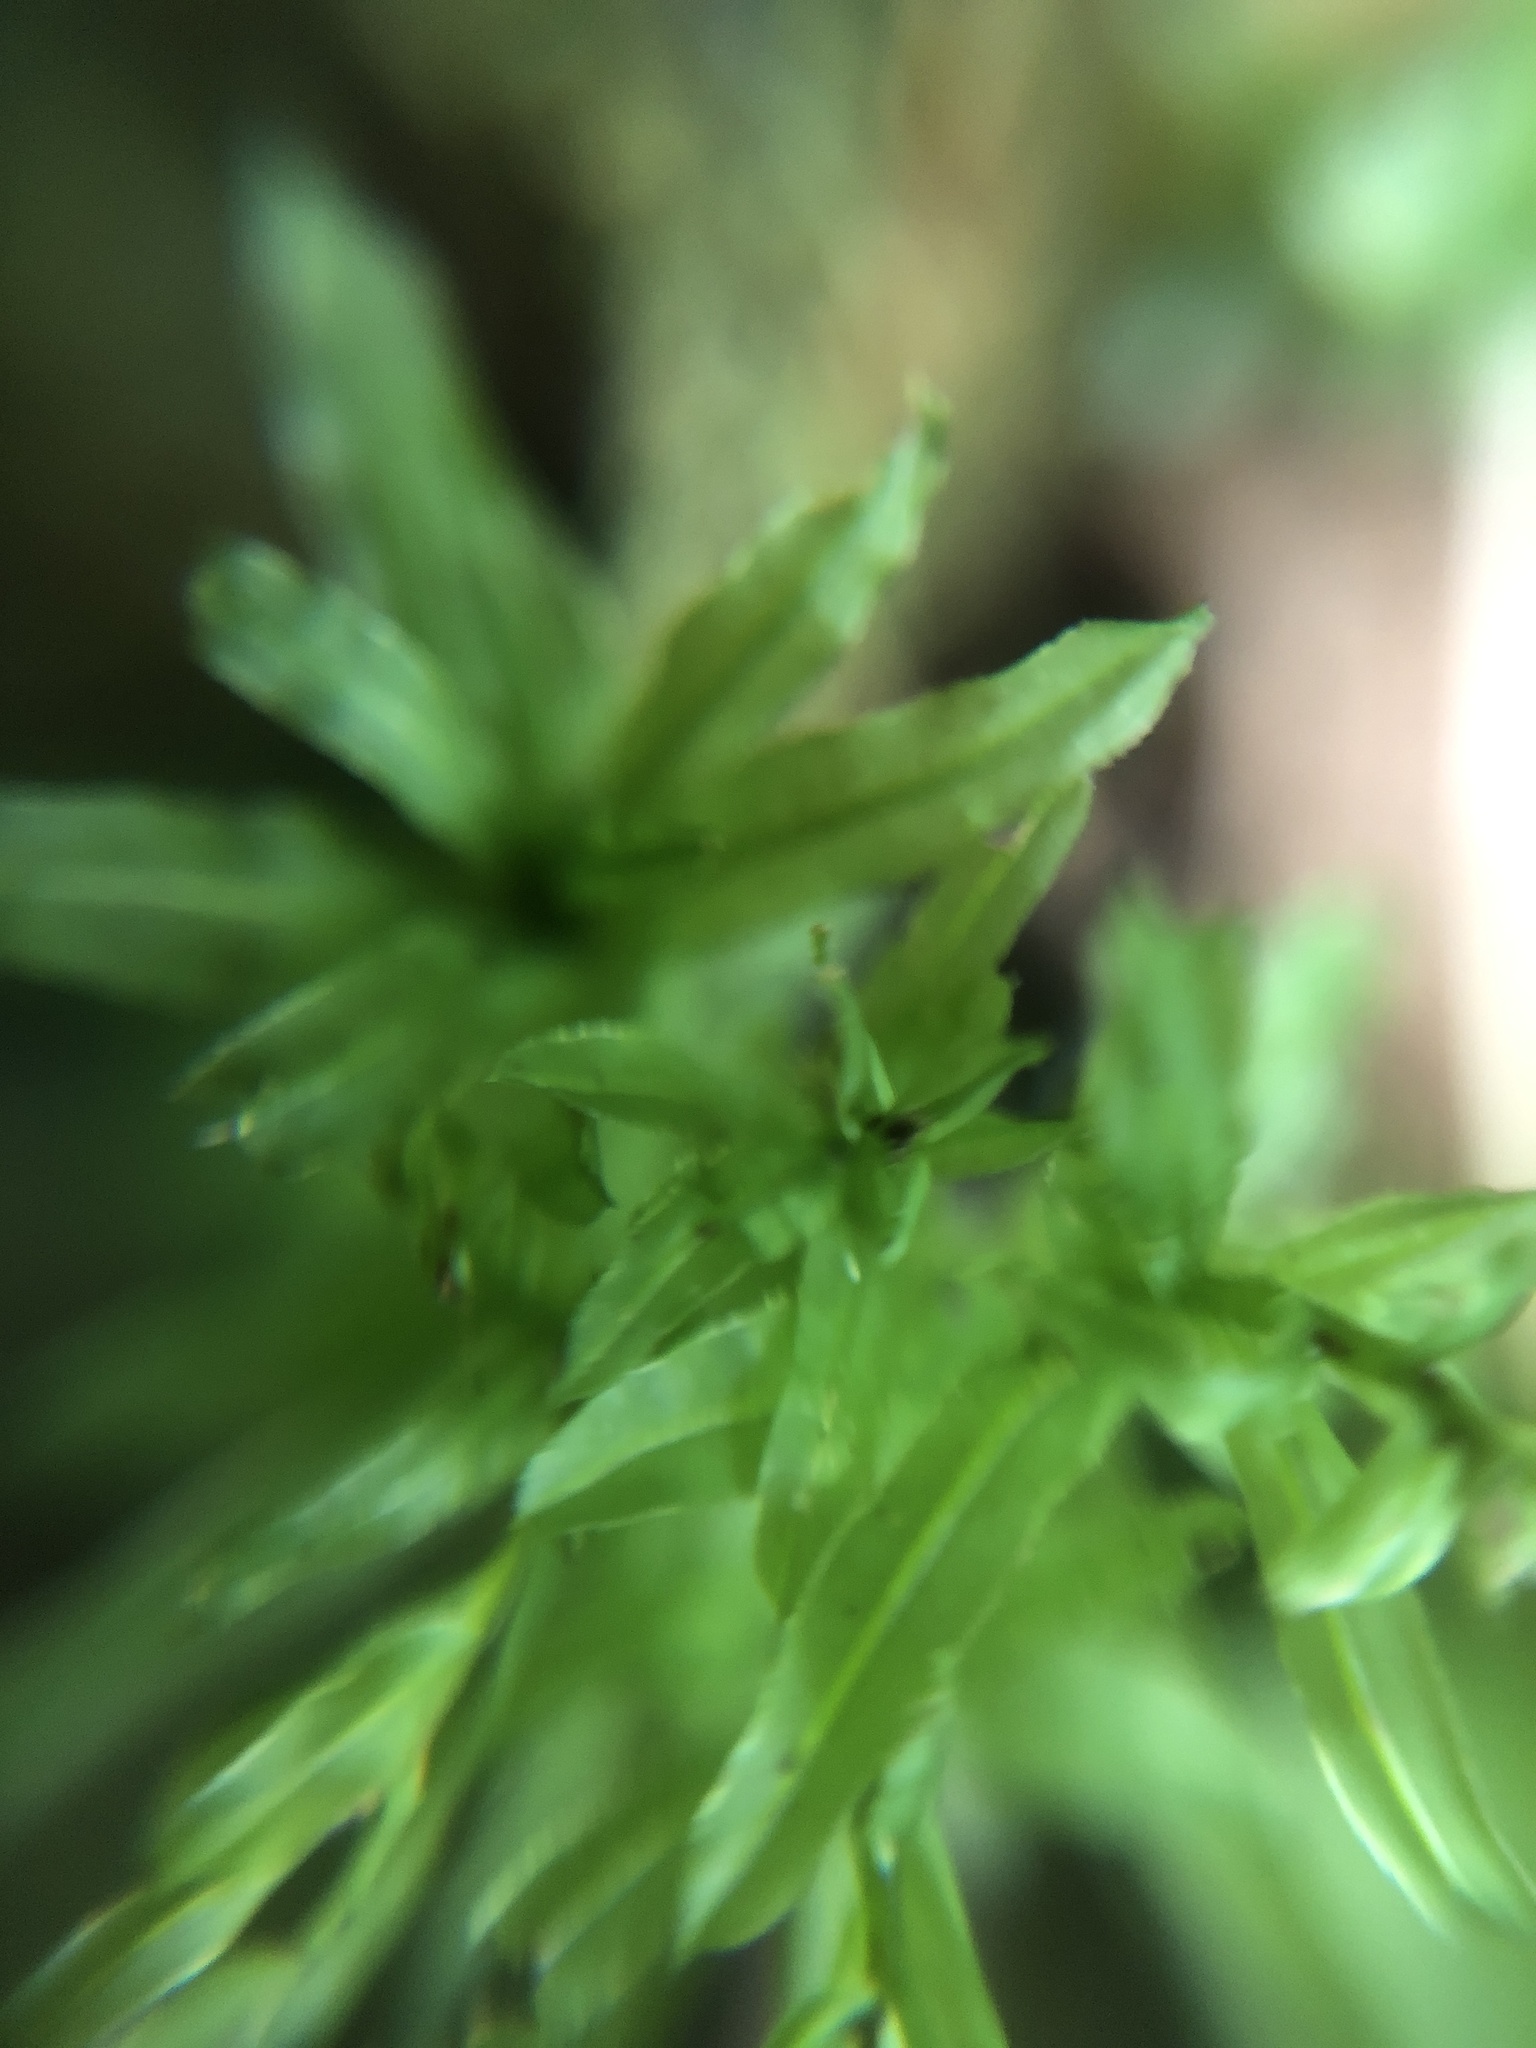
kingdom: Plantae
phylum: Bryophyta
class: Bryopsida
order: Bryales
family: Mniaceae
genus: Plagiomnium
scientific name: Plagiomnium undulatum
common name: Hart's-tongue thyme-moss
